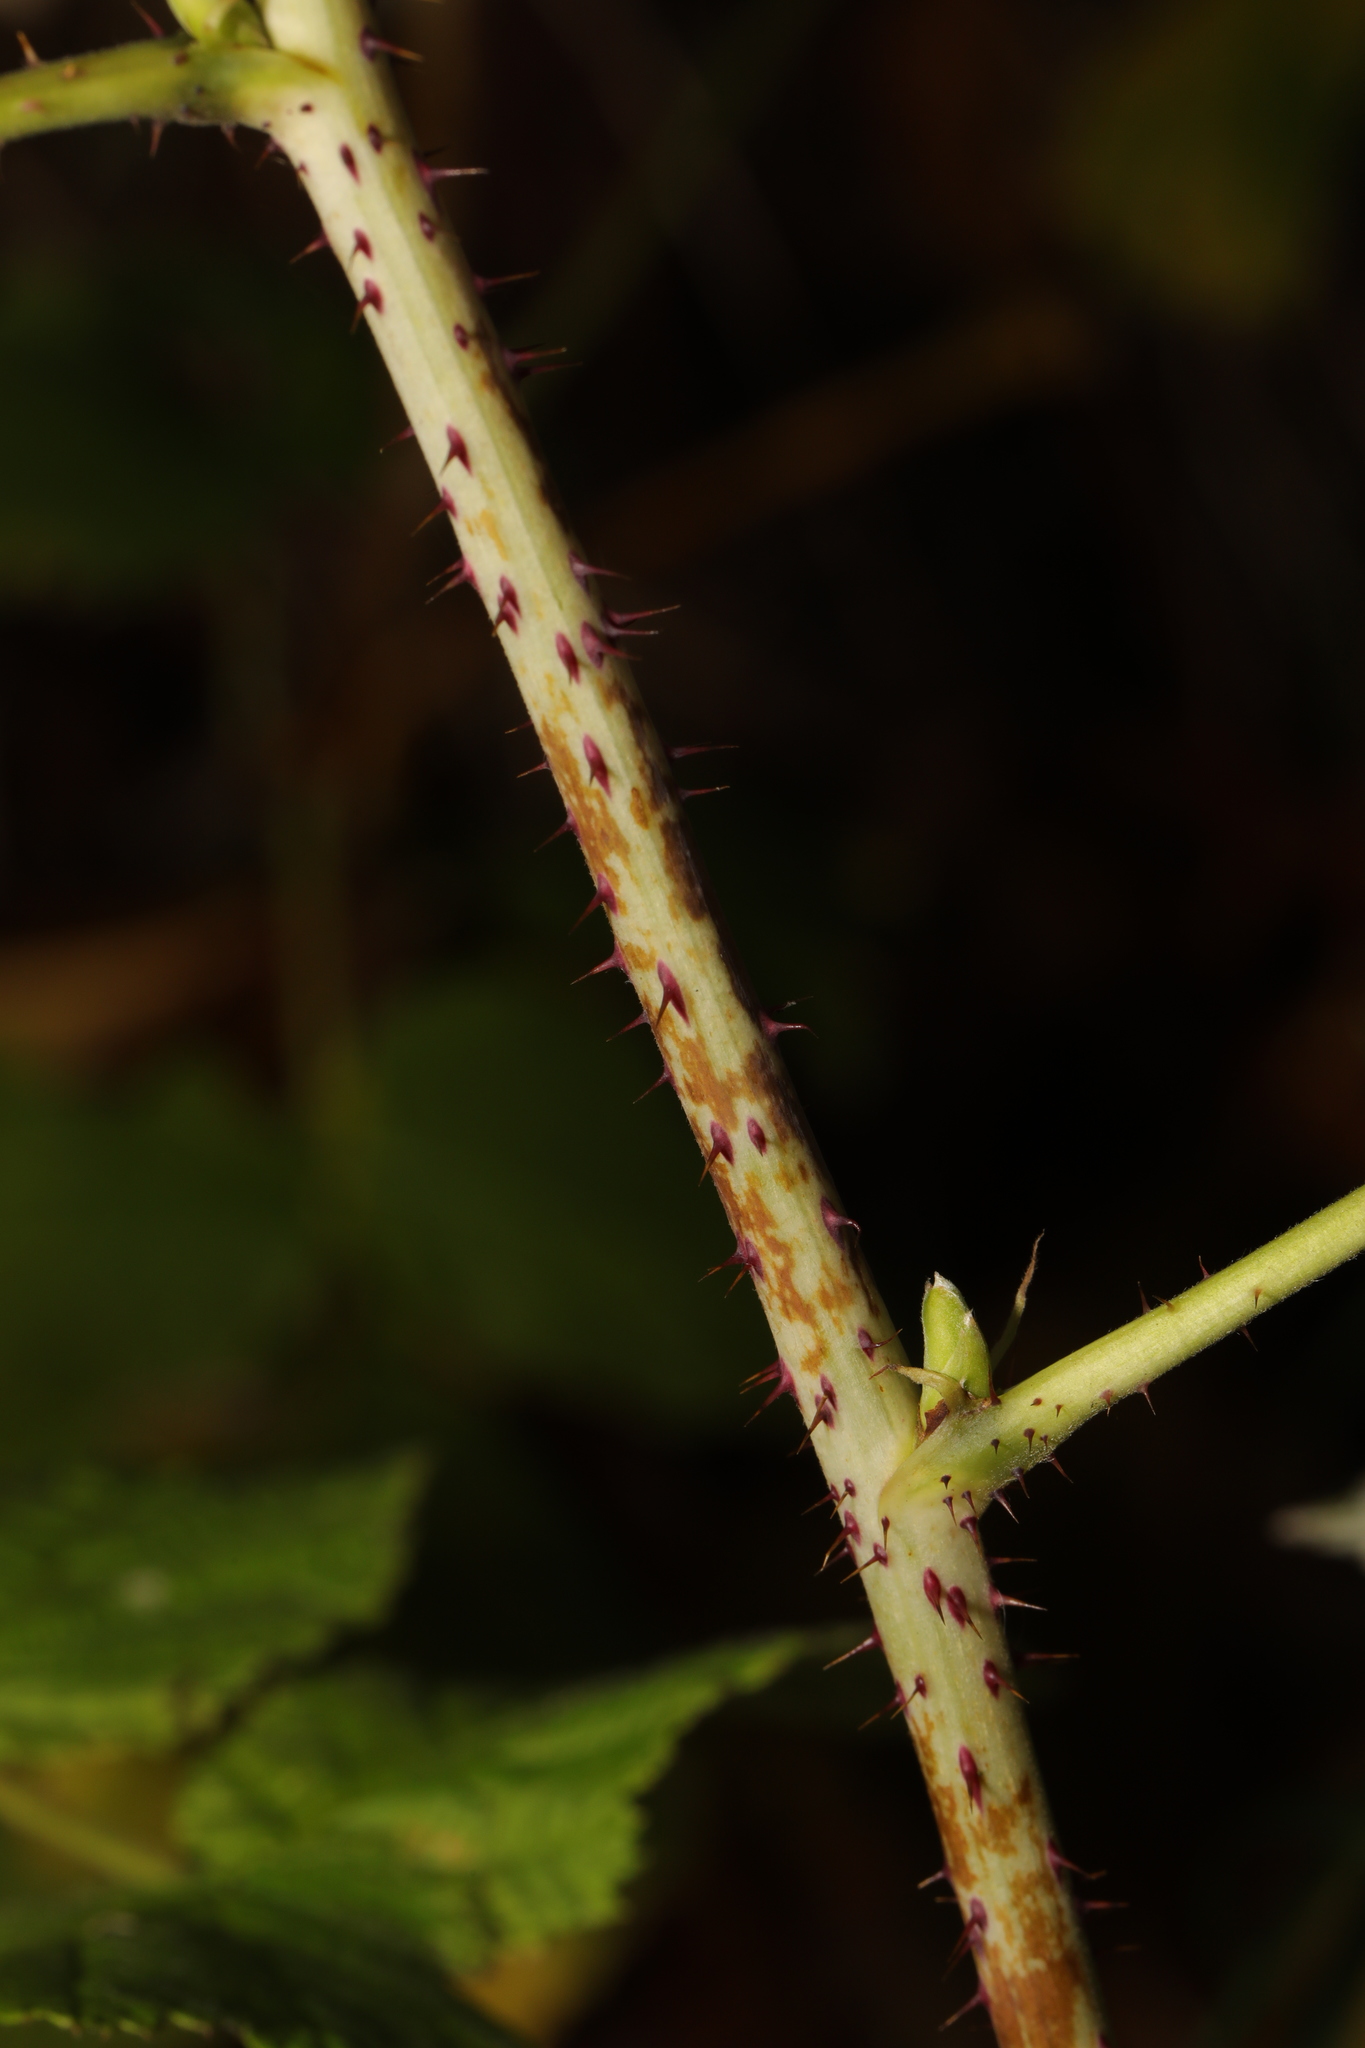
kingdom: Plantae
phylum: Tracheophyta
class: Magnoliopsida
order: Rosales
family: Rosaceae
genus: Rubus
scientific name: Rubus idaeus
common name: Raspberry
